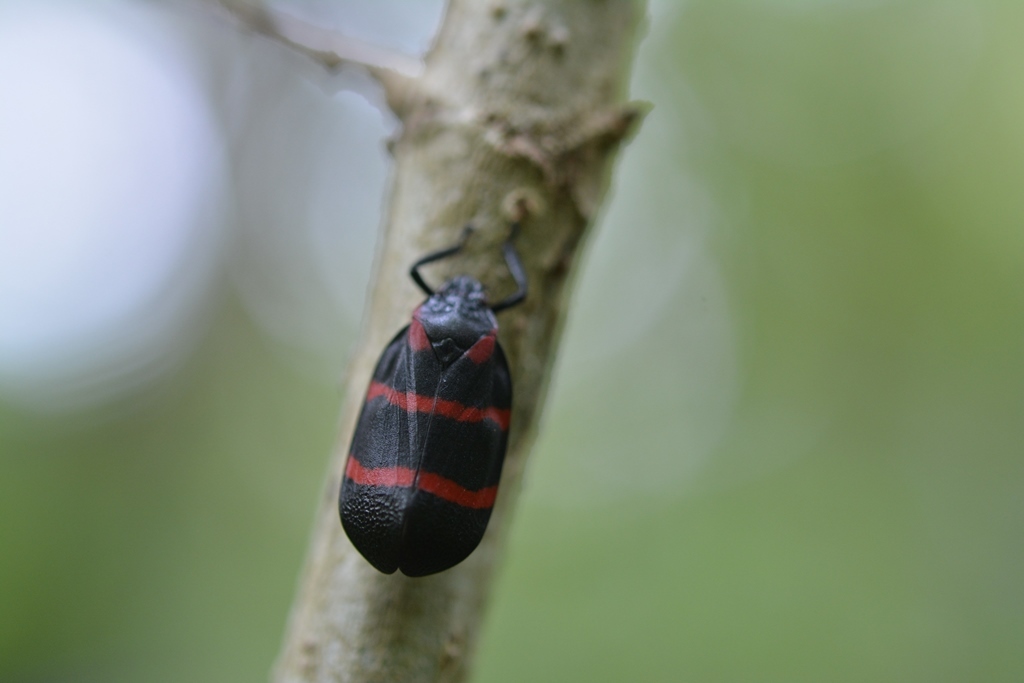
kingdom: Animalia
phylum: Arthropoda
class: Insecta
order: Hemiptera
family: Cercopidae
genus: Huaina
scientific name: Huaina inca
